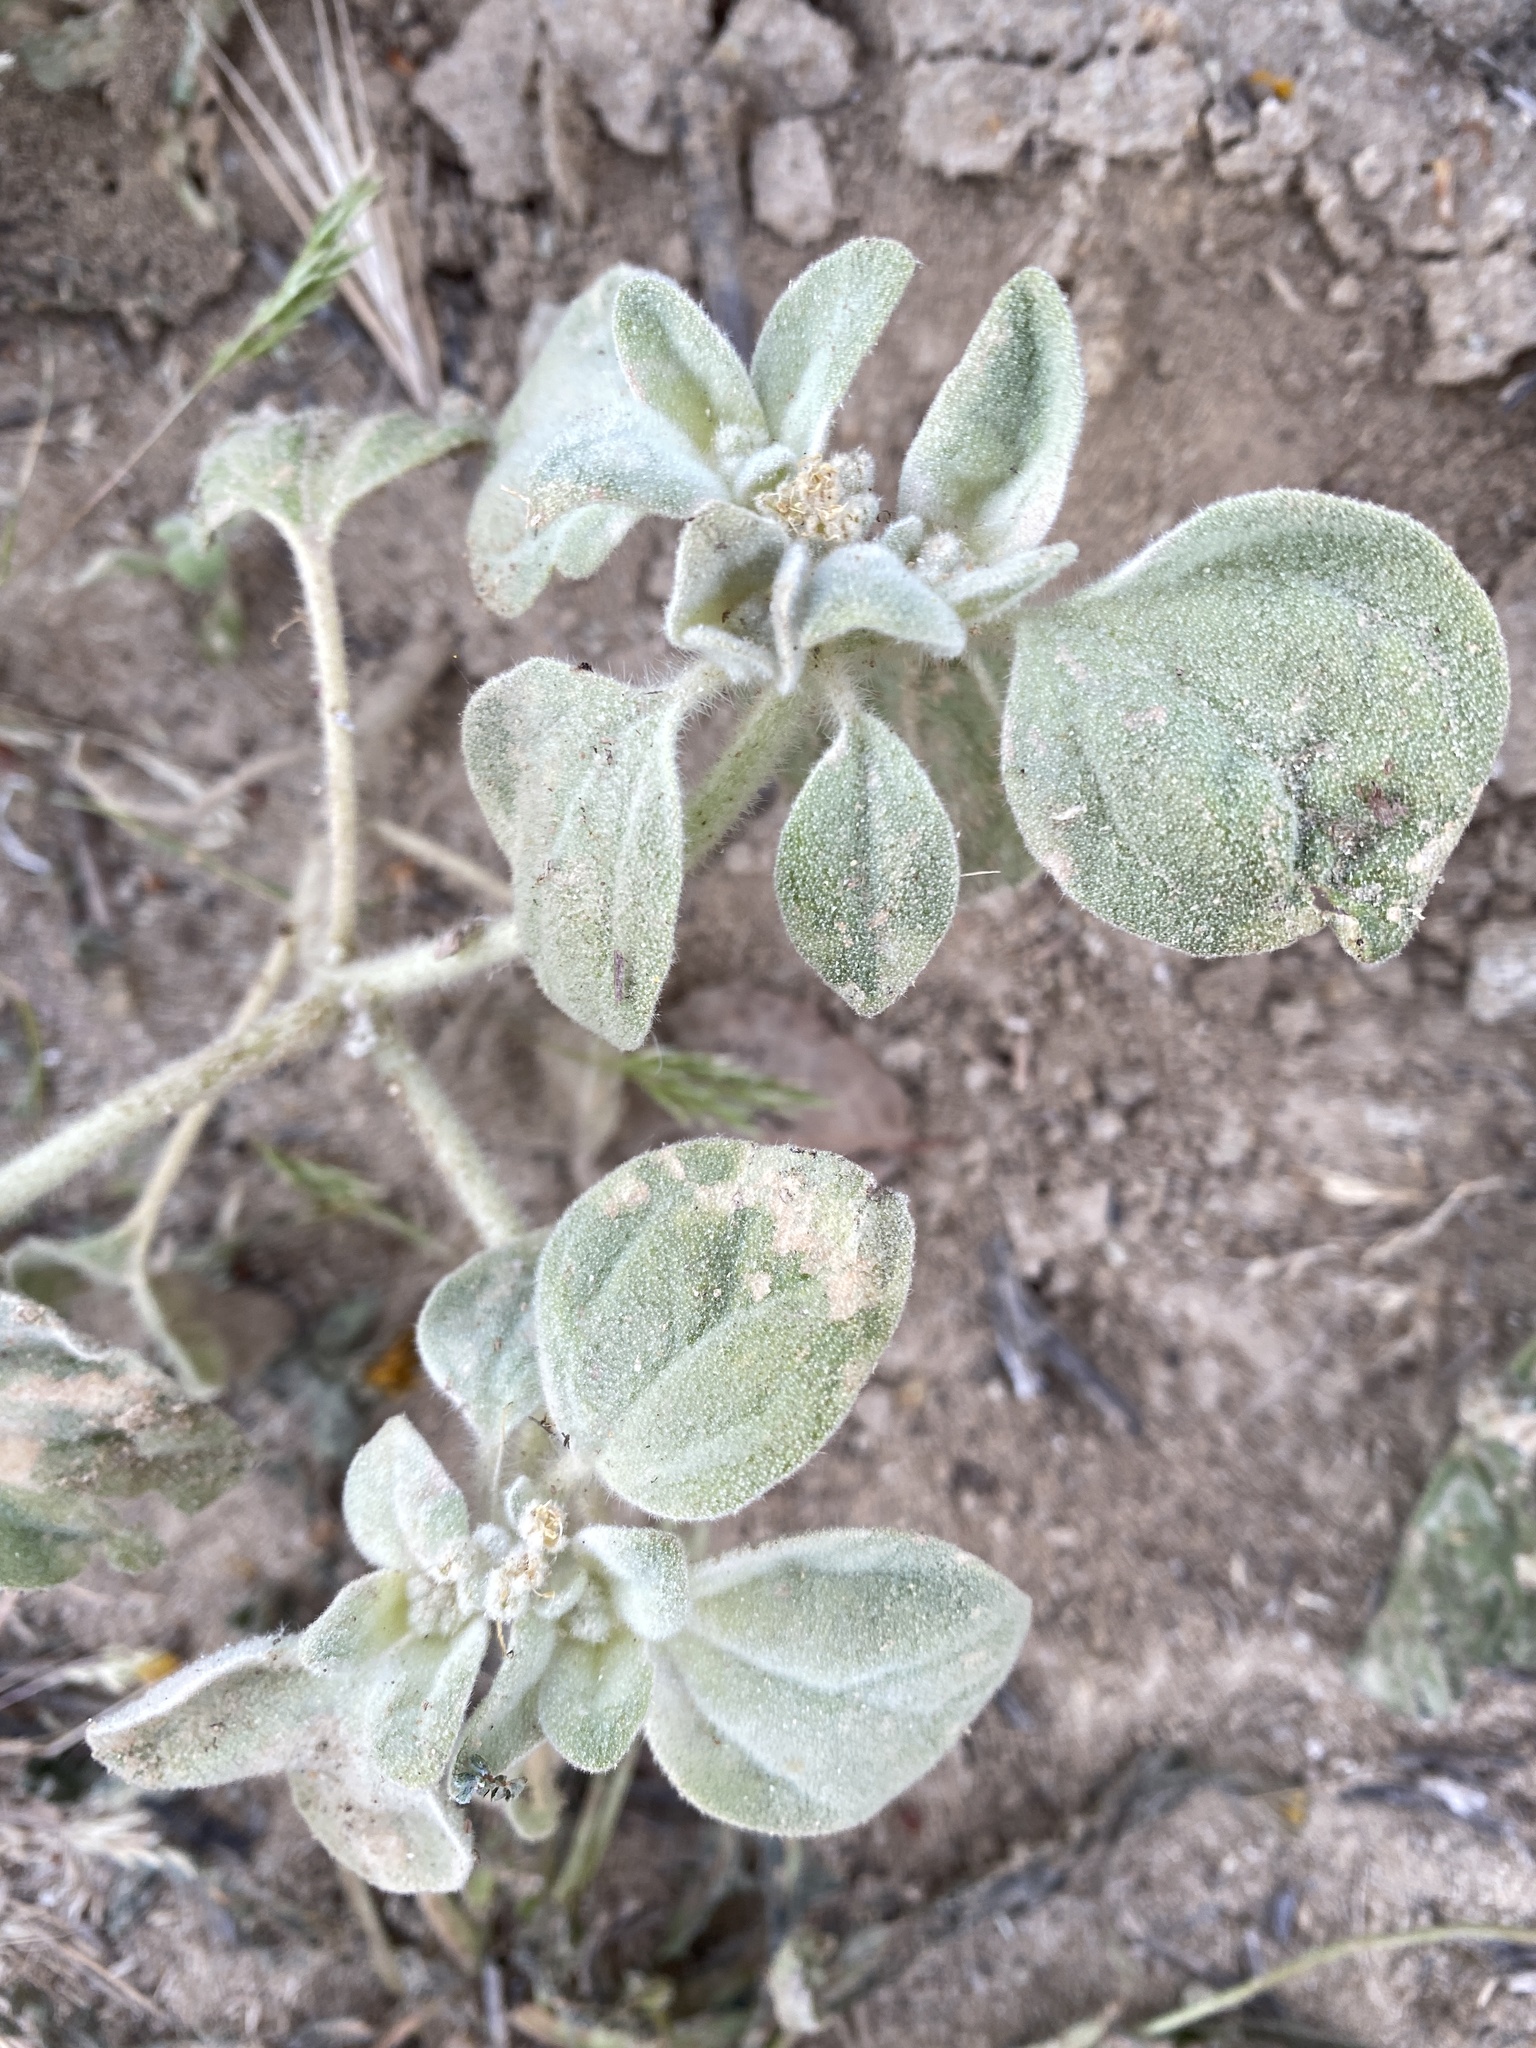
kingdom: Plantae
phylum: Tracheophyta
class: Magnoliopsida
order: Malpighiales
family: Euphorbiaceae
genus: Croton
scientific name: Croton setiger
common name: Dove weed
